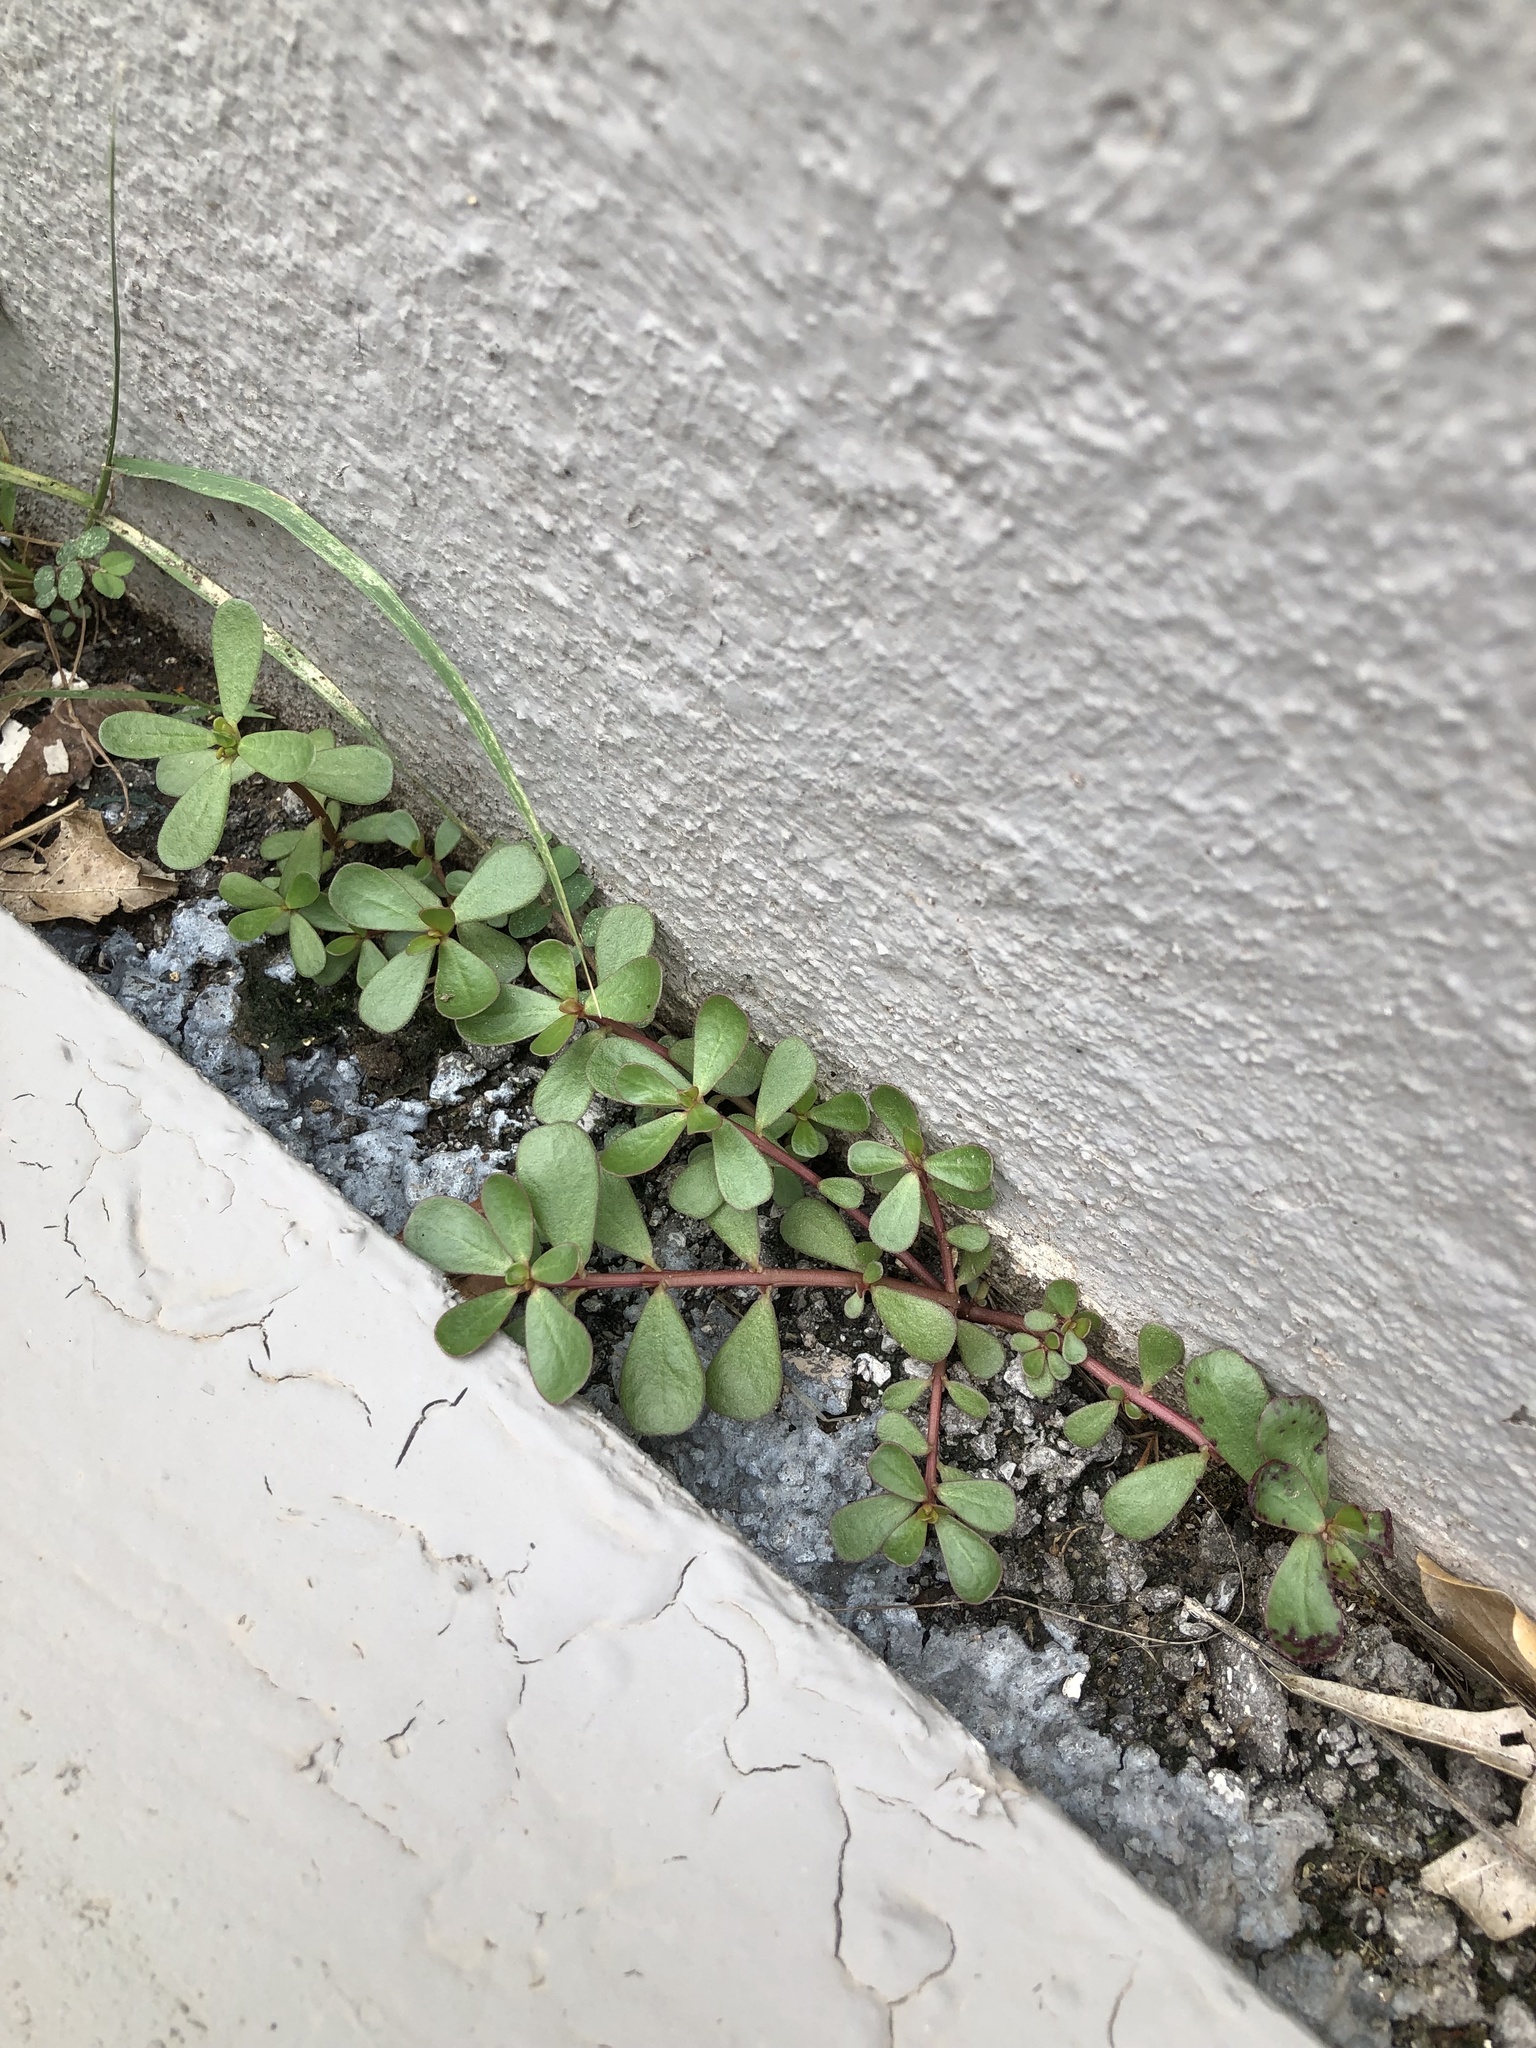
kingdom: Plantae
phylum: Tracheophyta
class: Magnoliopsida
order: Caryophyllales
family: Portulacaceae
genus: Portulaca
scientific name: Portulaca oleracea
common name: Common purslane
